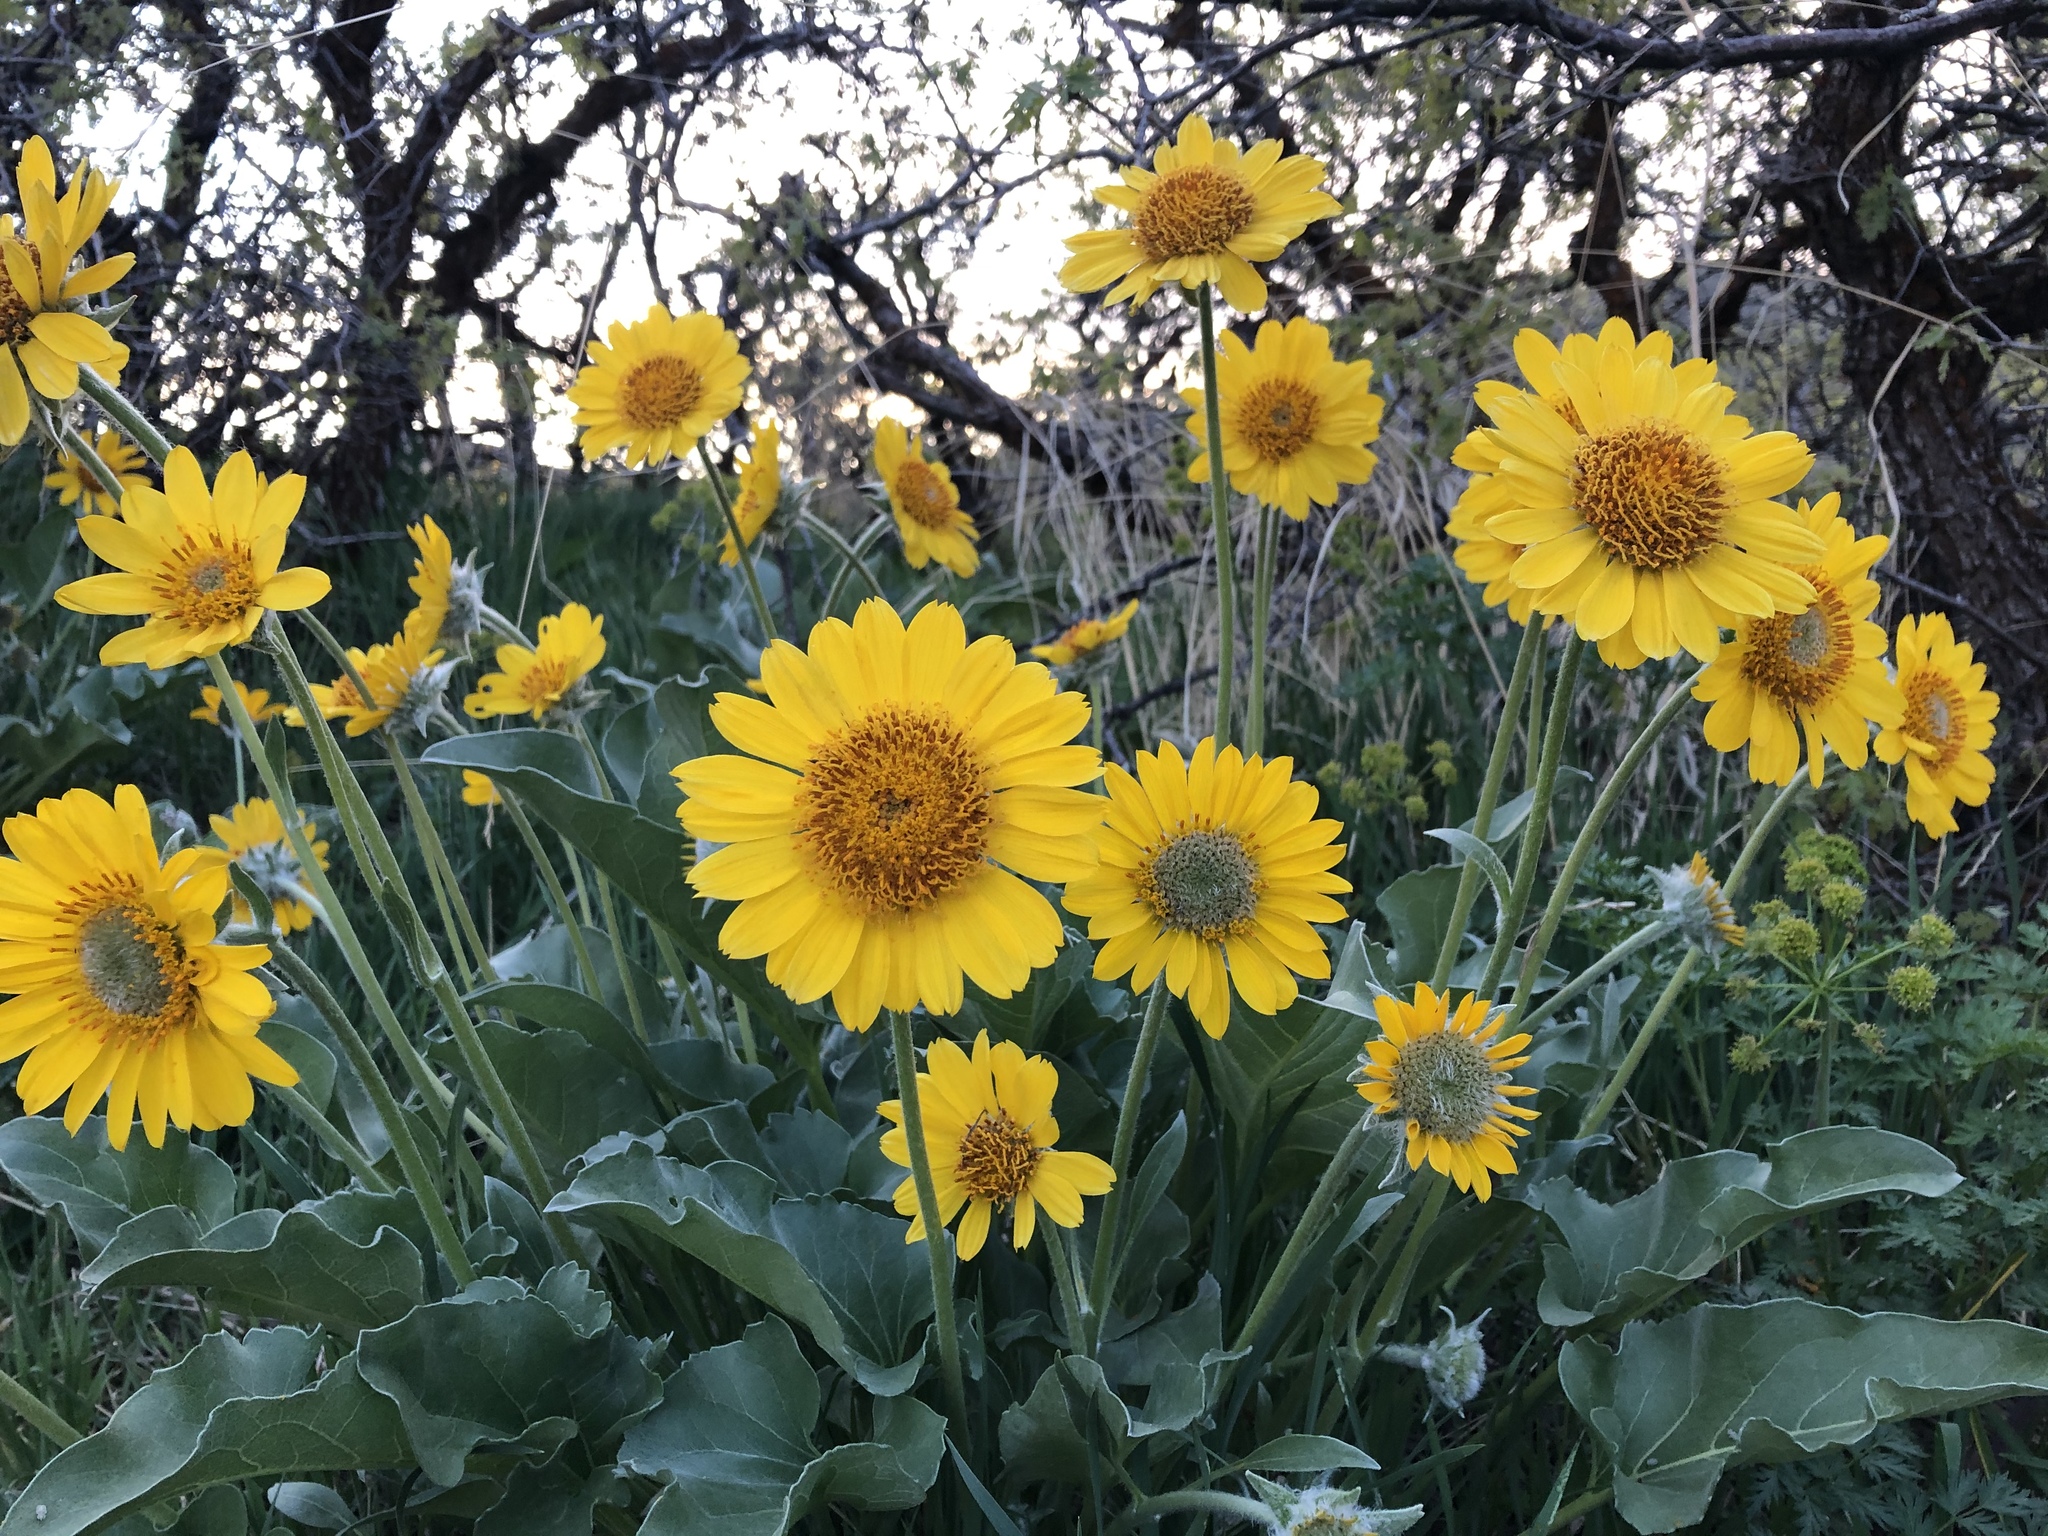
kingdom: Plantae
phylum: Tracheophyta
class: Magnoliopsida
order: Asterales
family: Asteraceae
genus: Wyethia
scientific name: Wyethia sagittata
